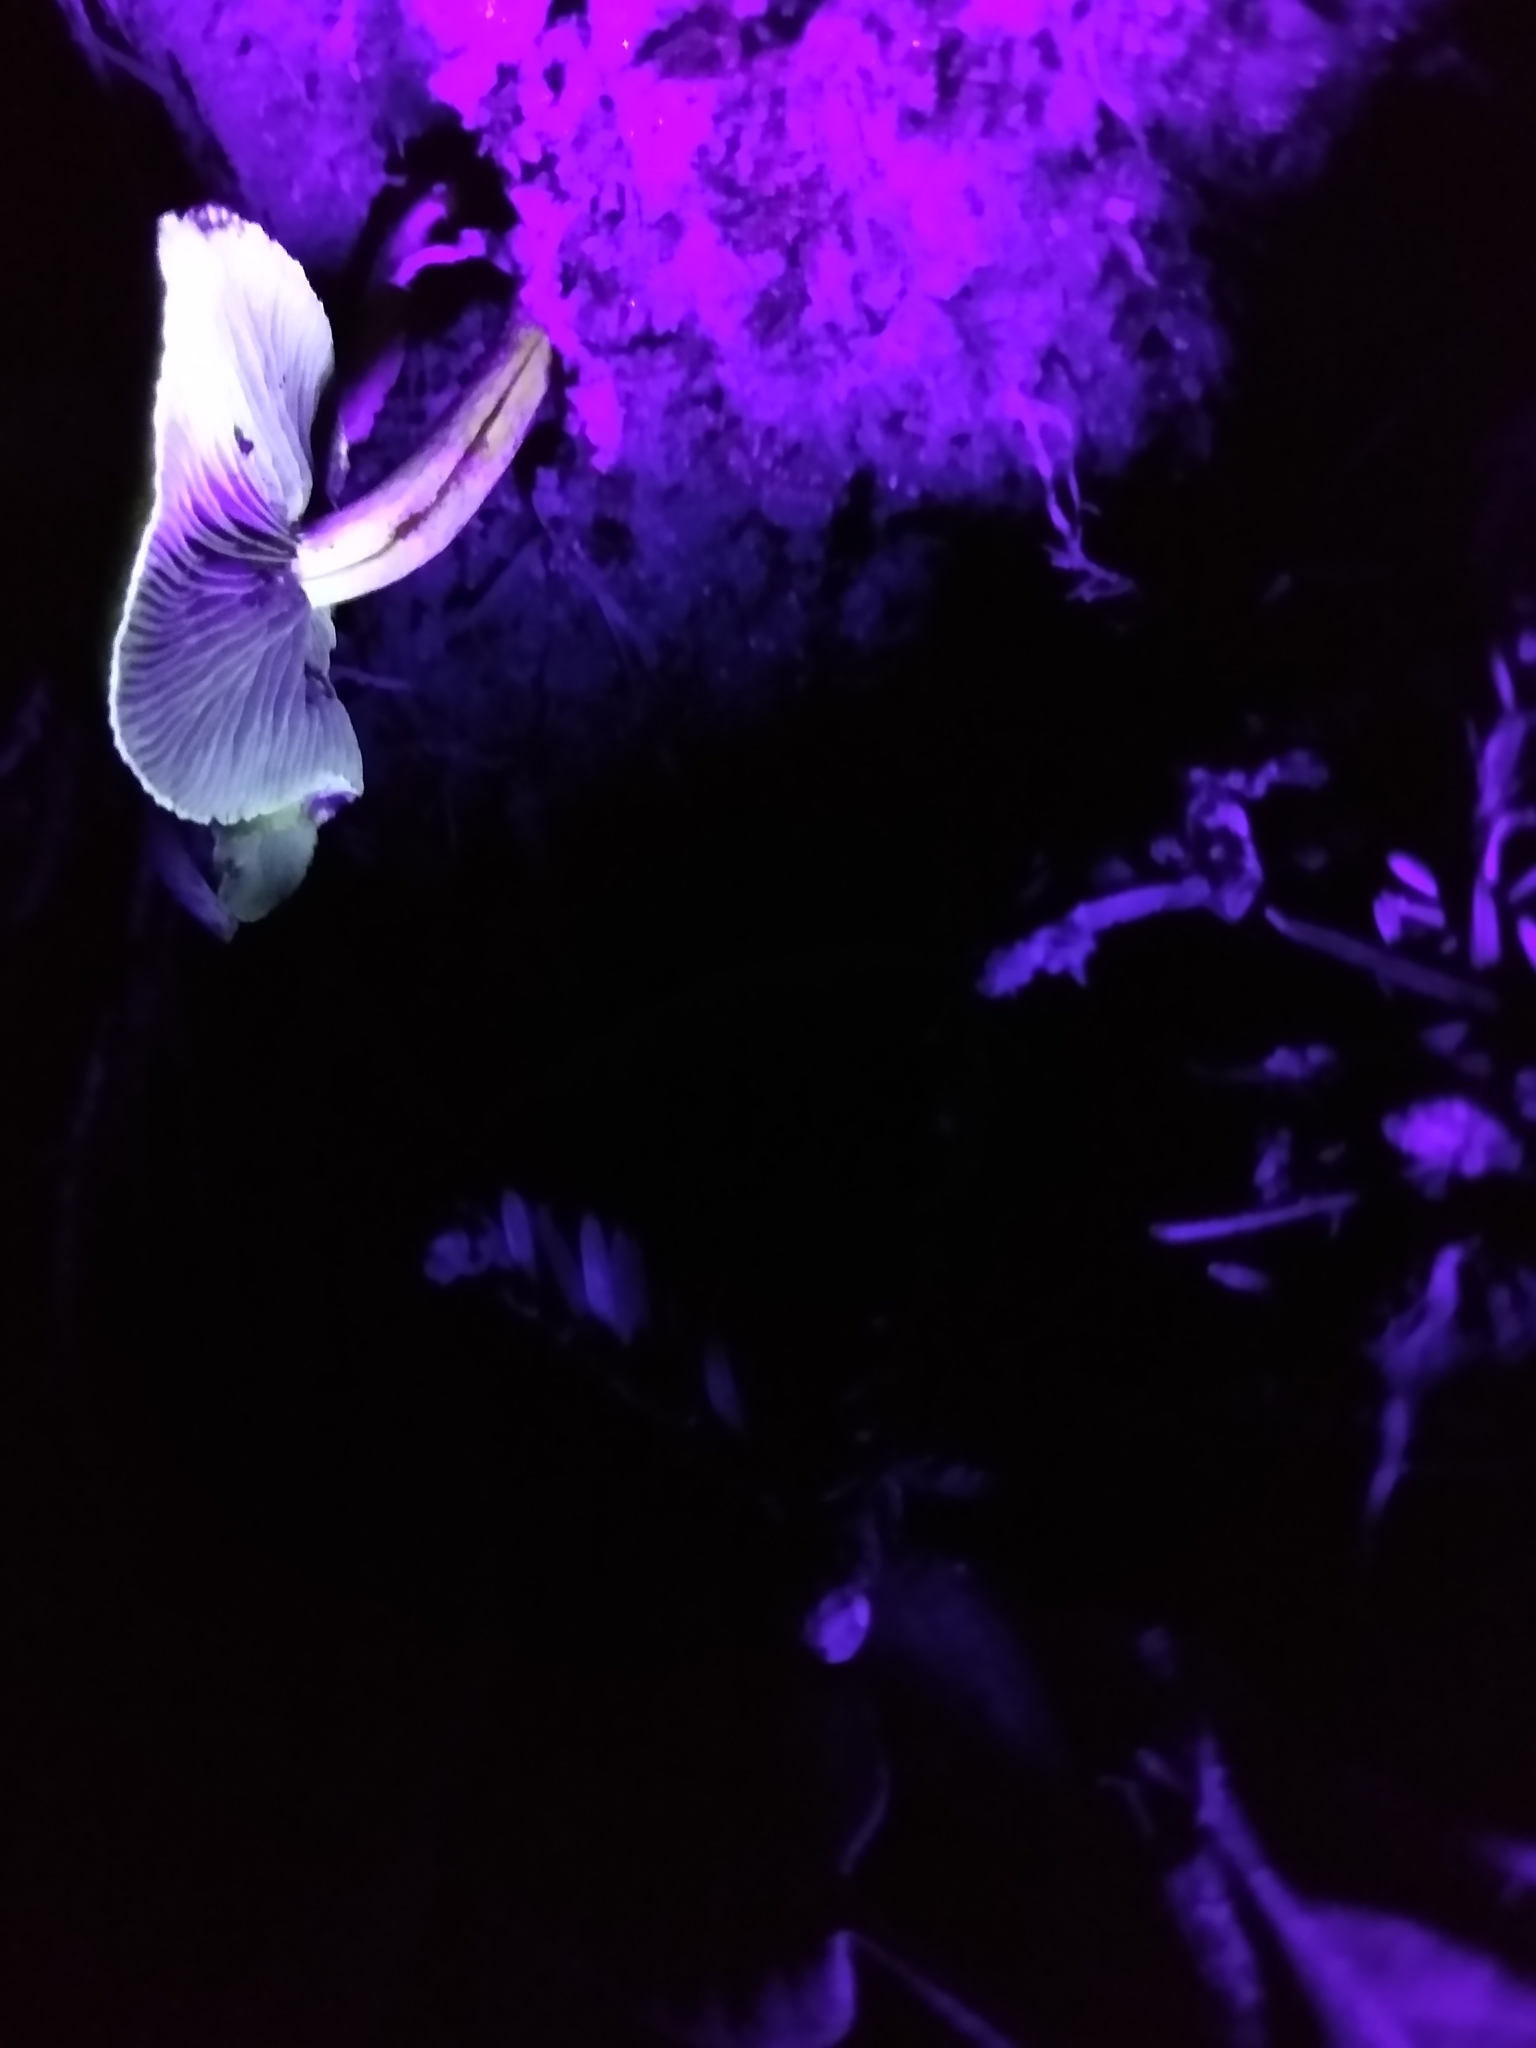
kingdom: Fungi
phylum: Basidiomycota
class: Agaricomycetes
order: Agaricales
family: Strophariaceae
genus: Hypholoma
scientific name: Hypholoma fasciculare
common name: Sulphur tuft
